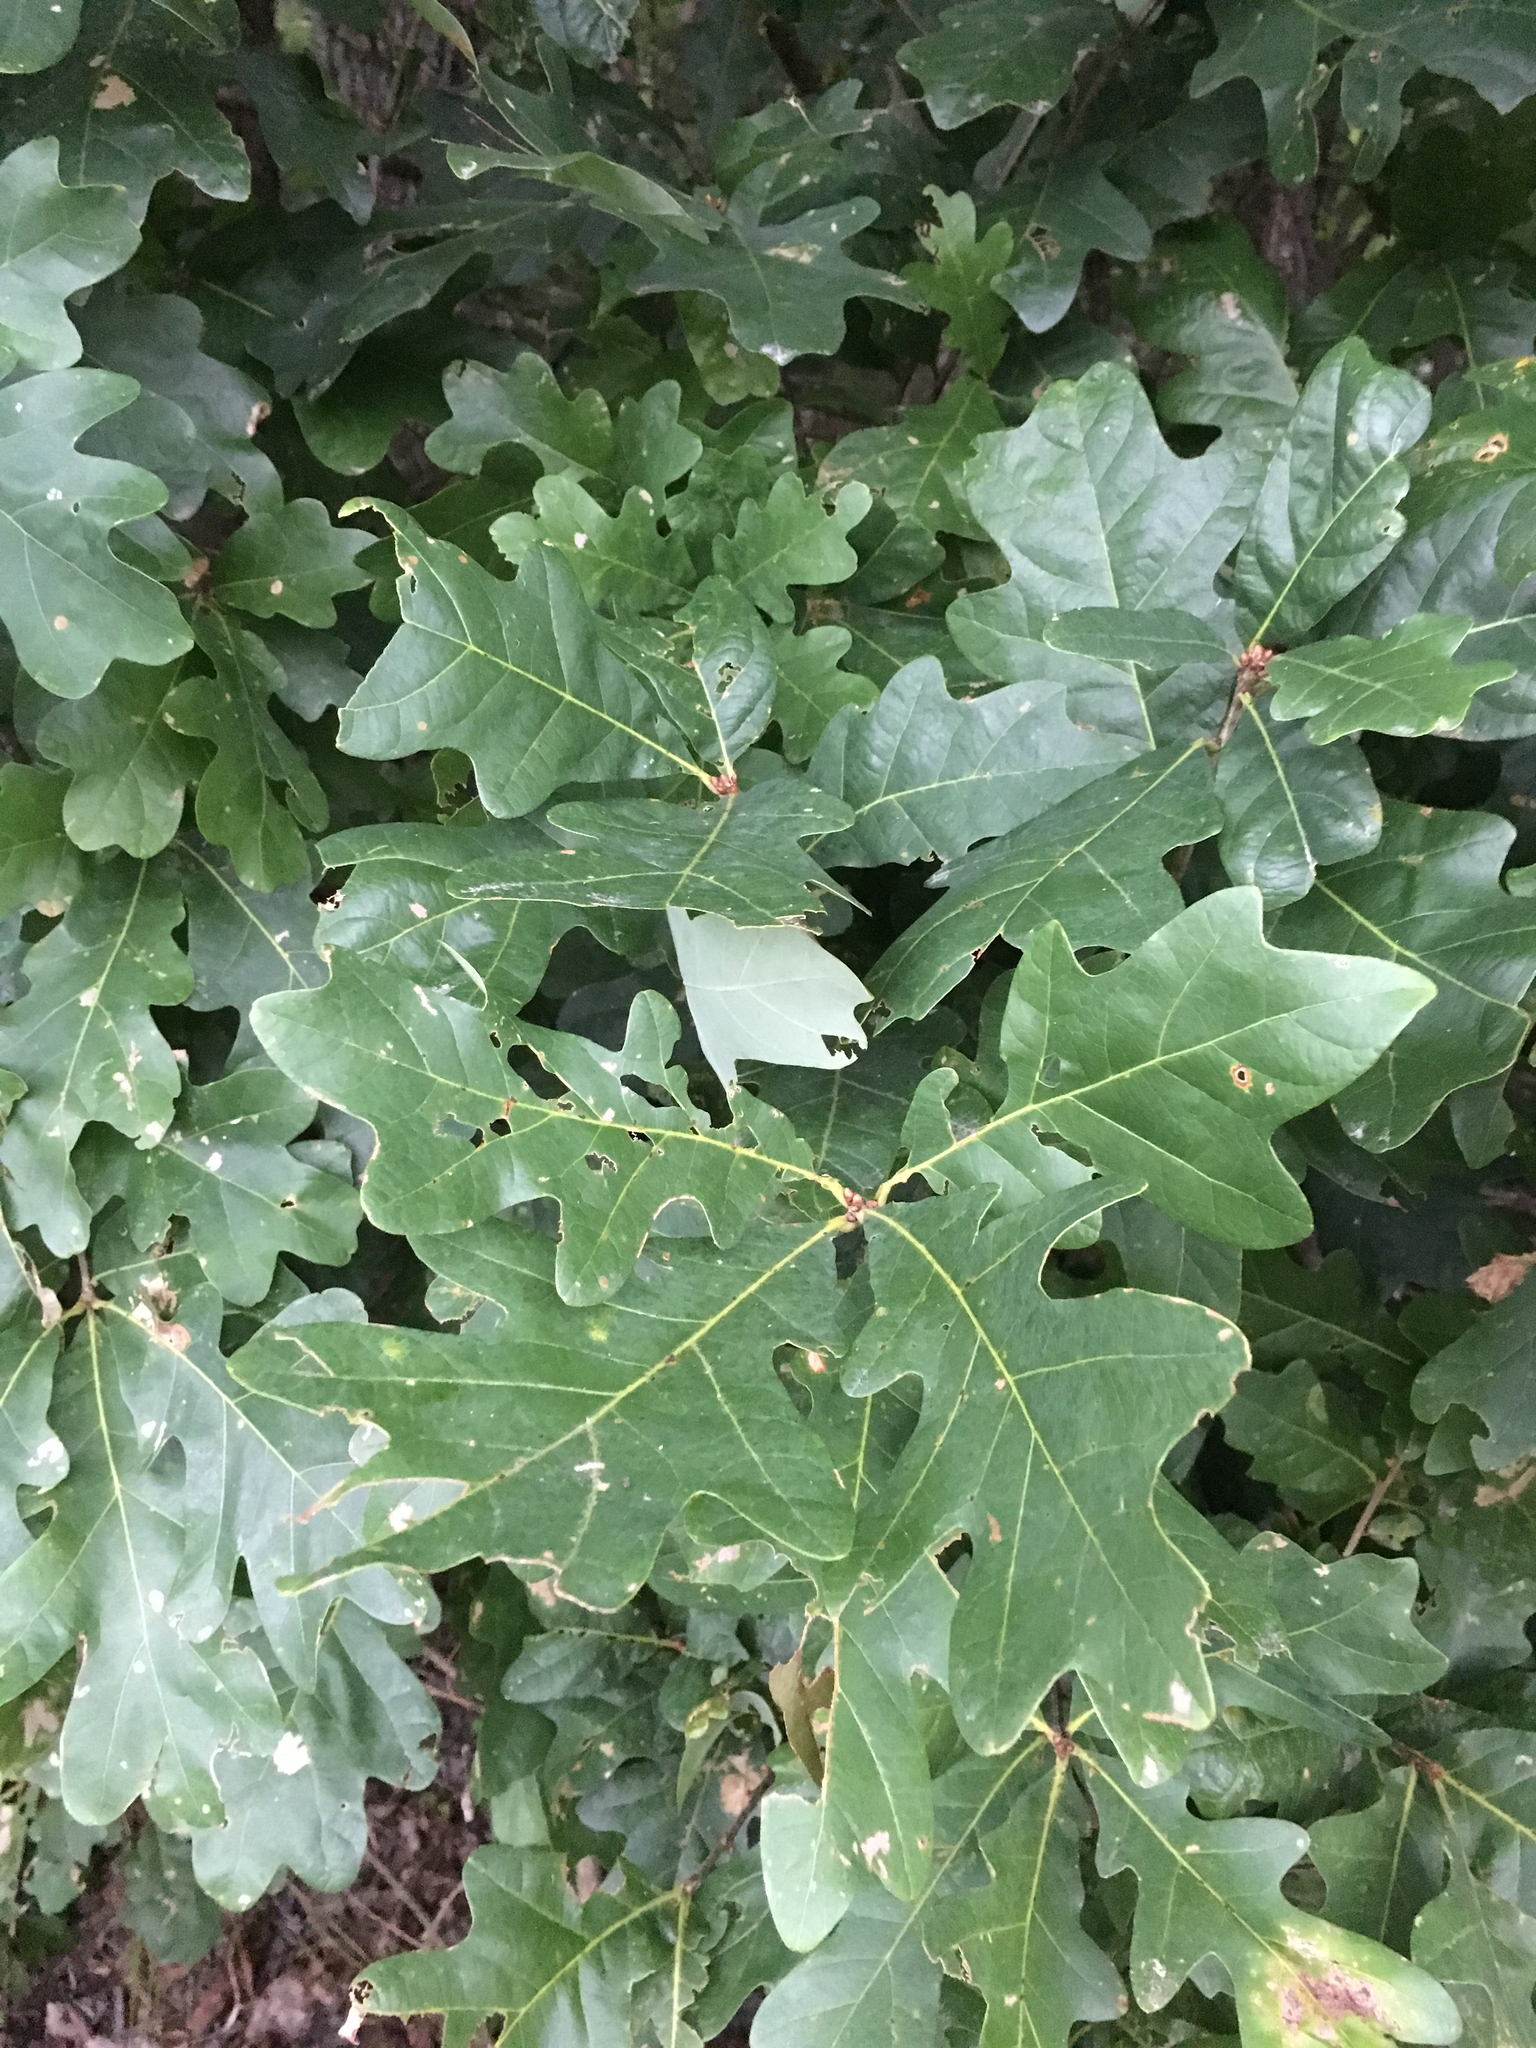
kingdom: Plantae
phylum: Tracheophyta
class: Magnoliopsida
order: Fagales
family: Fagaceae
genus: Quercus
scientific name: Quercus alba
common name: White oak
